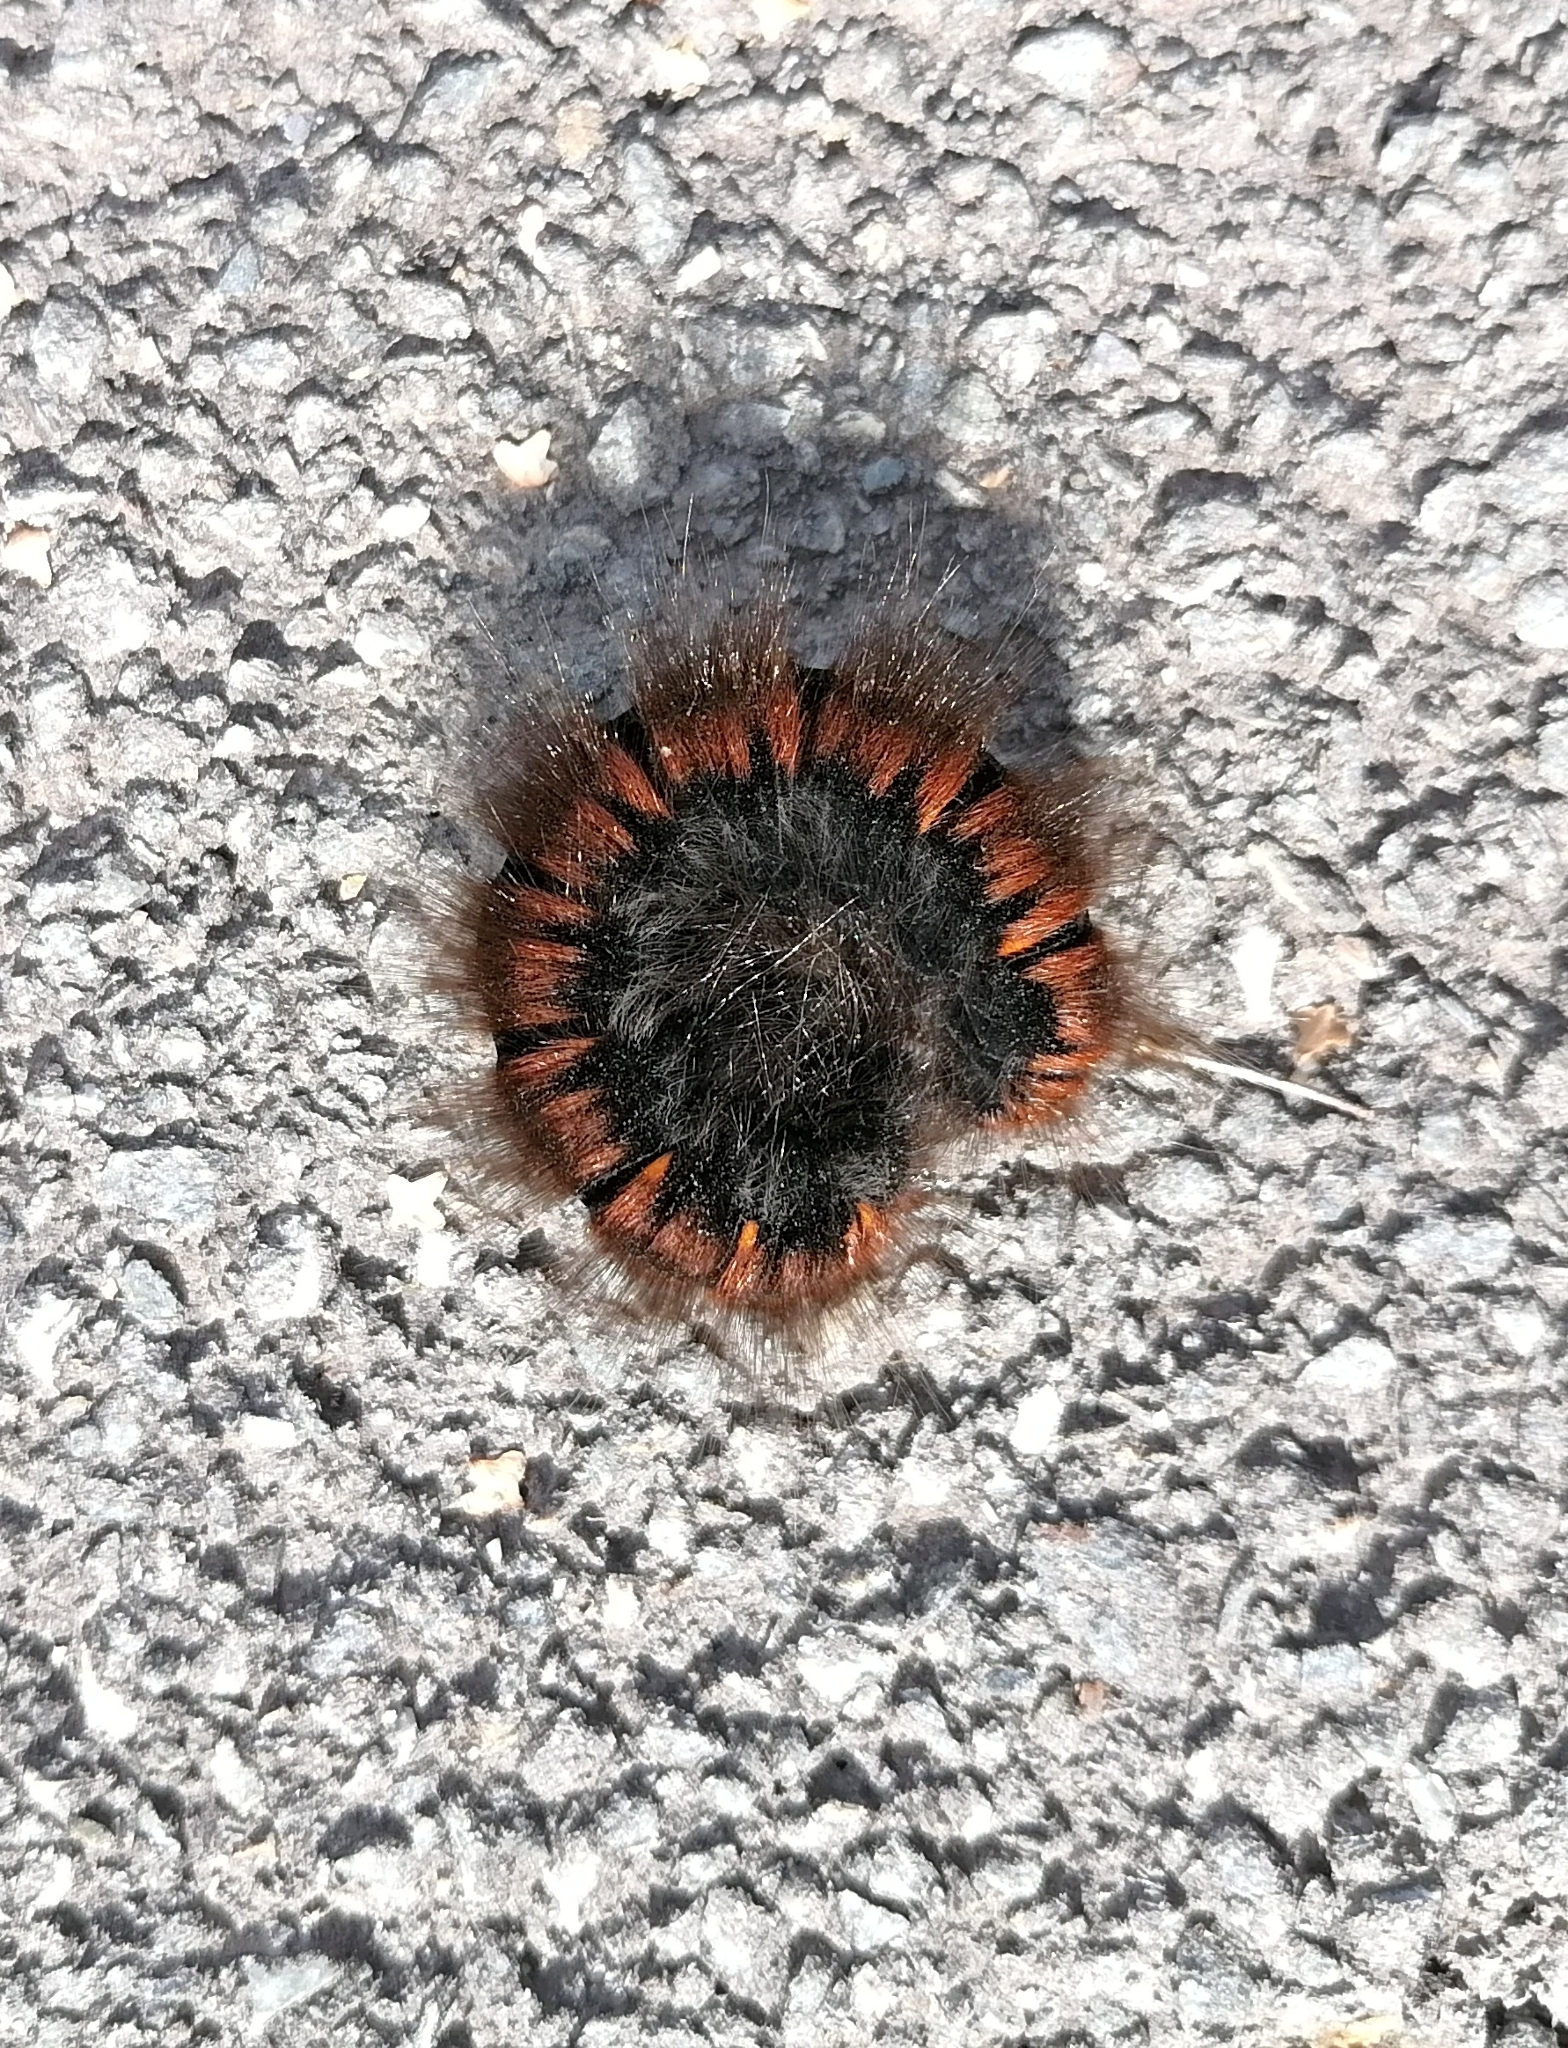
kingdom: Animalia
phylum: Arthropoda
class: Insecta
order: Lepidoptera
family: Lasiocampidae
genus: Macrothylacia
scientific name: Macrothylacia rubi
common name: Fox moth
